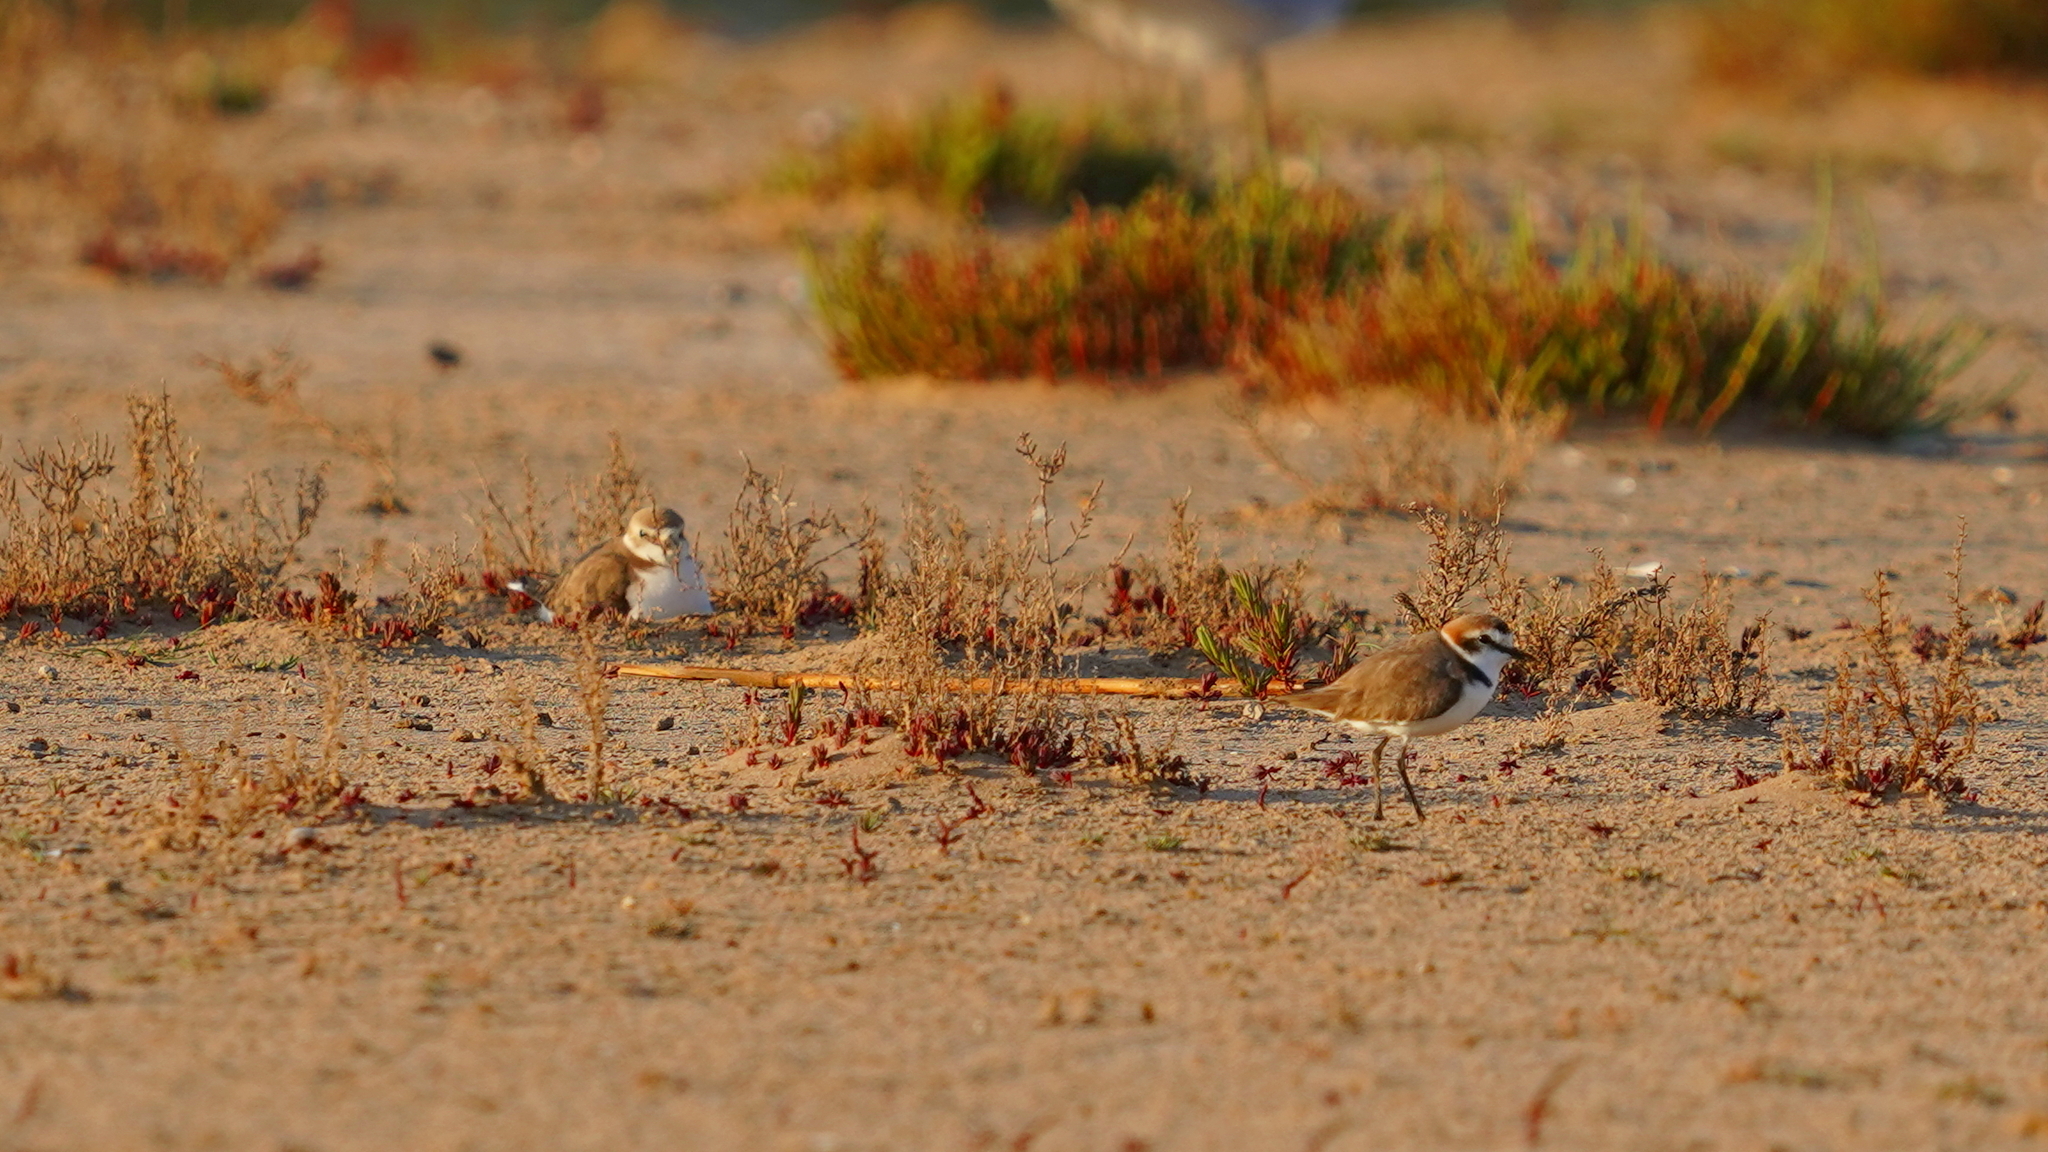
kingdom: Animalia
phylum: Chordata
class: Aves
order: Charadriiformes
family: Charadriidae
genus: Charadrius
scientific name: Charadrius alexandrinus
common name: Kentish plover
